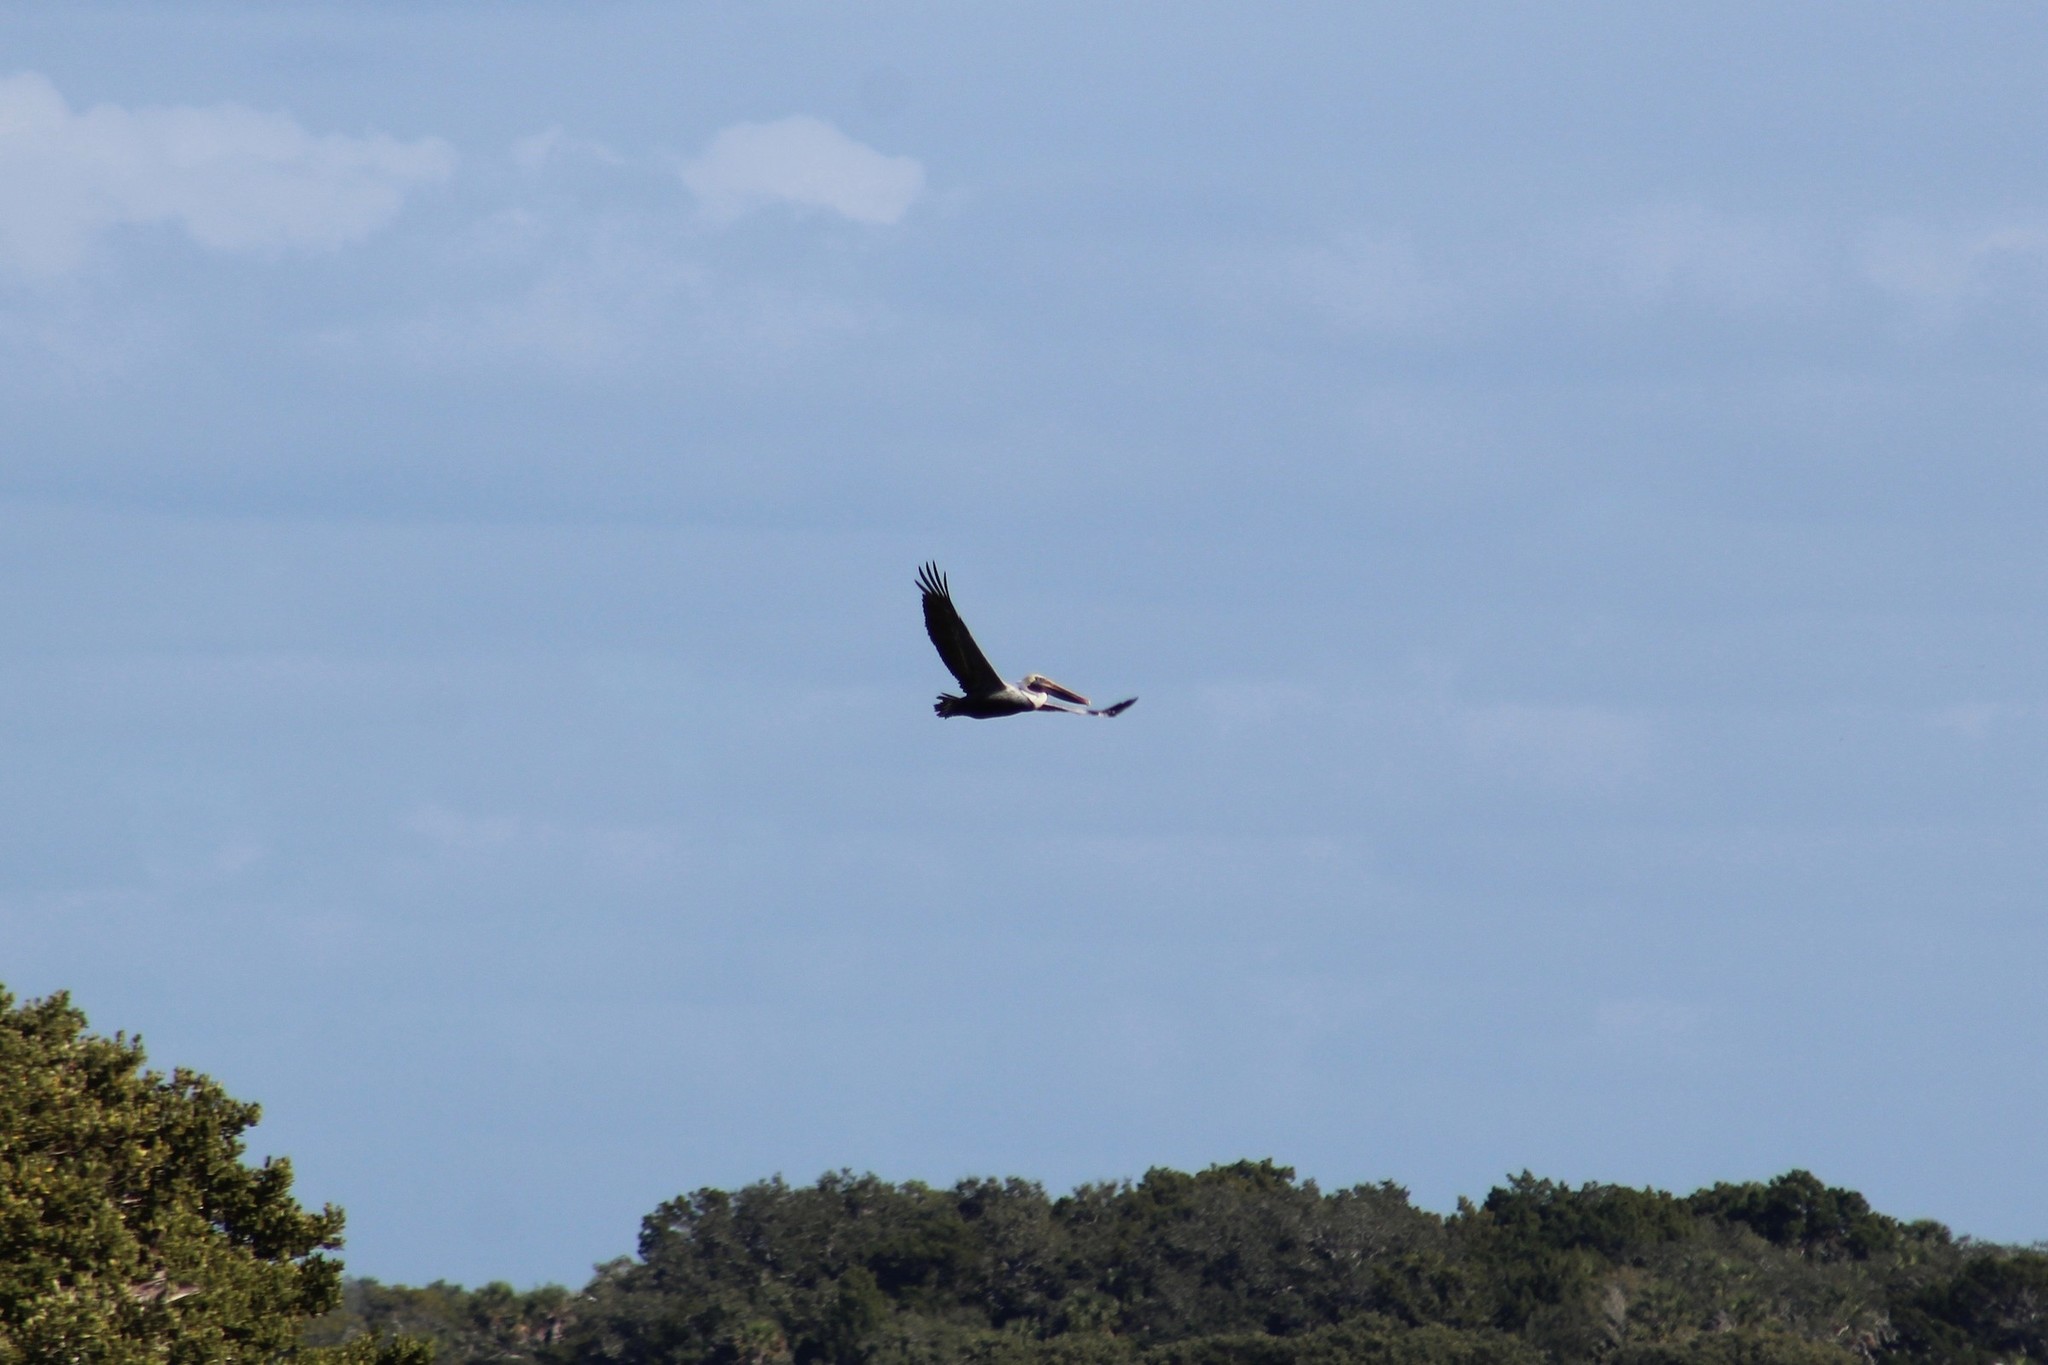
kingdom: Animalia
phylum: Chordata
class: Aves
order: Pelecaniformes
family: Pelecanidae
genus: Pelecanus
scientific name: Pelecanus erythrorhynchos
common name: American white pelican
